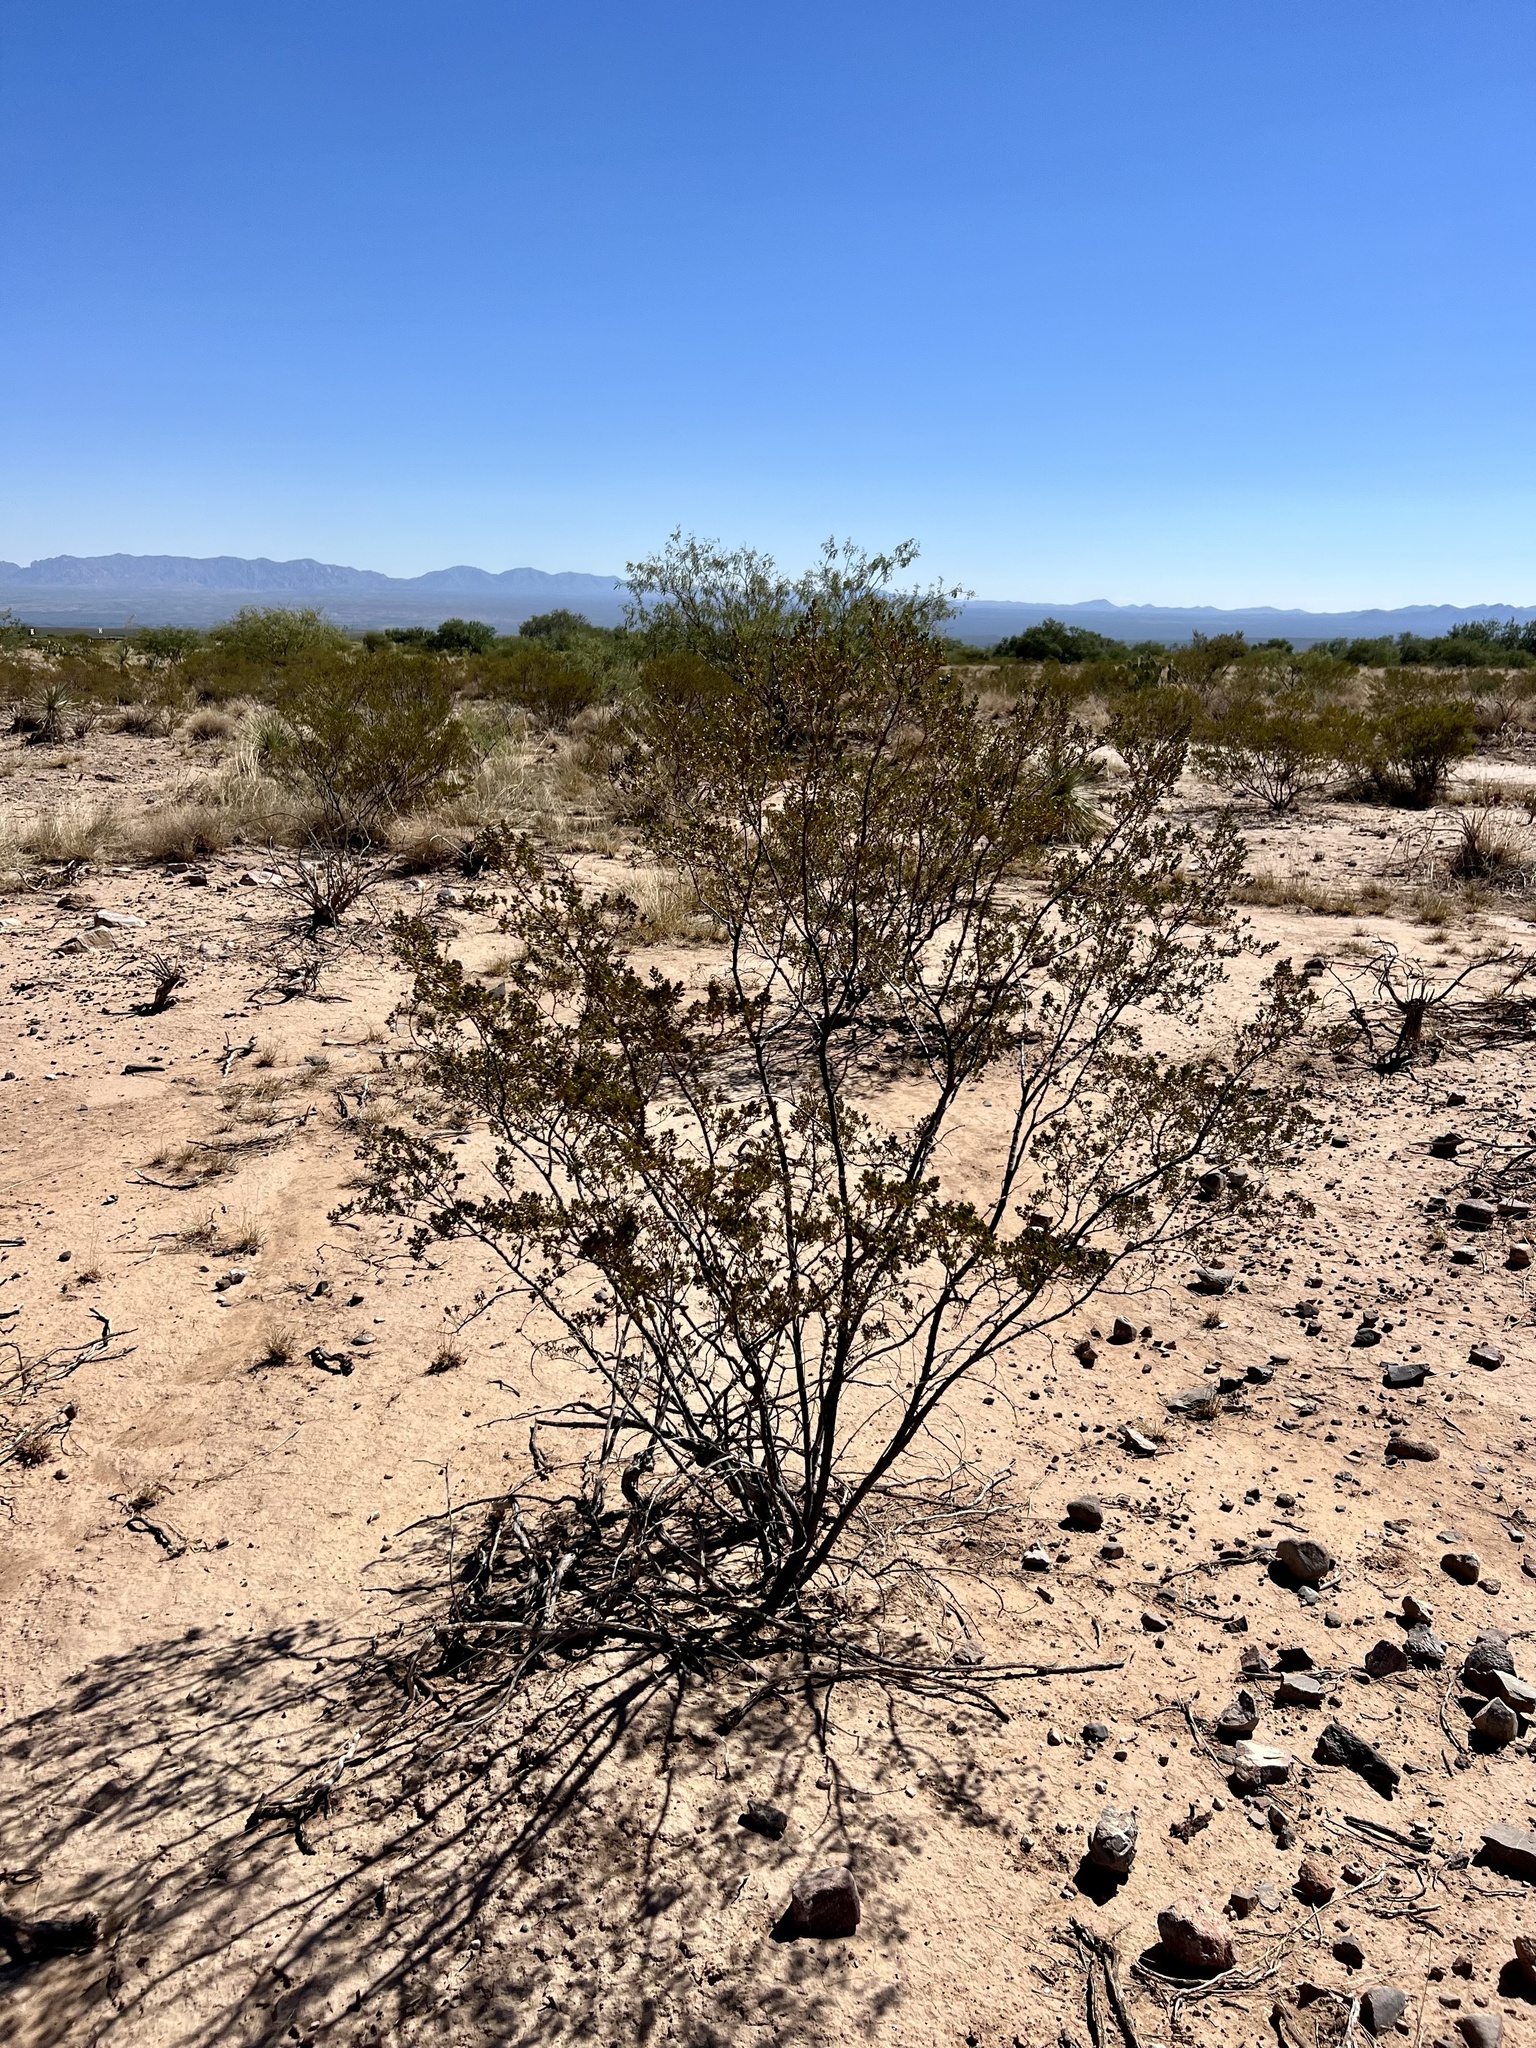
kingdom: Plantae
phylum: Tracheophyta
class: Magnoliopsida
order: Zygophyllales
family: Zygophyllaceae
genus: Larrea
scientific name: Larrea tridentata
